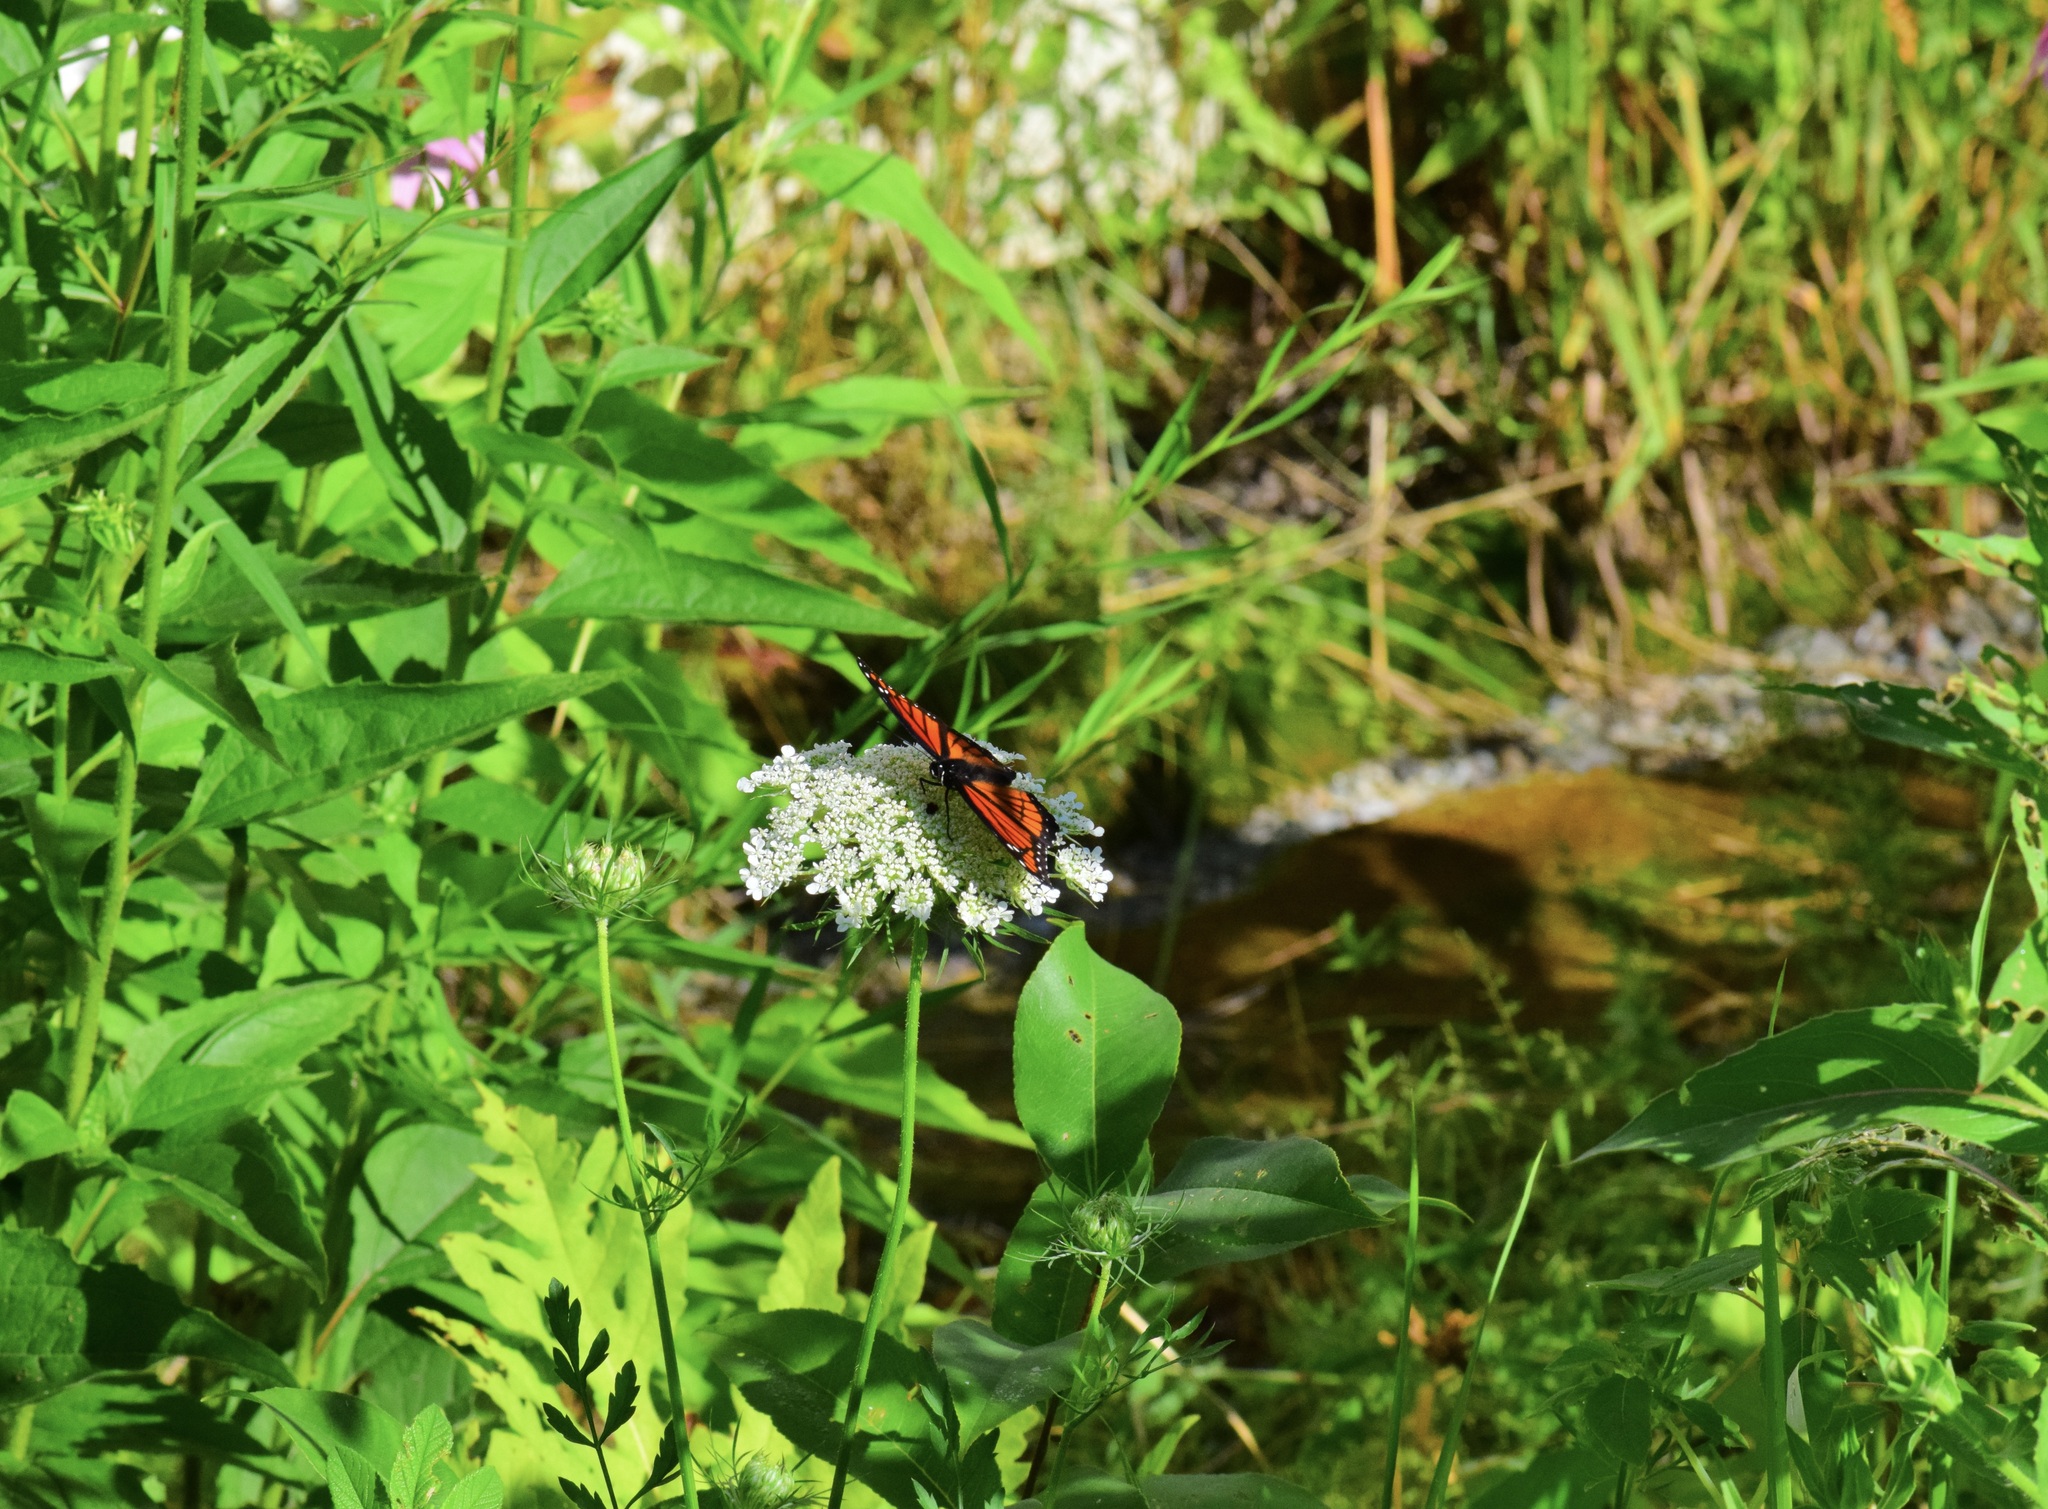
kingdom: Animalia
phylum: Arthropoda
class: Insecta
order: Lepidoptera
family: Nymphalidae
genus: Limenitis
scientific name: Limenitis archippus
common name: Viceroy
